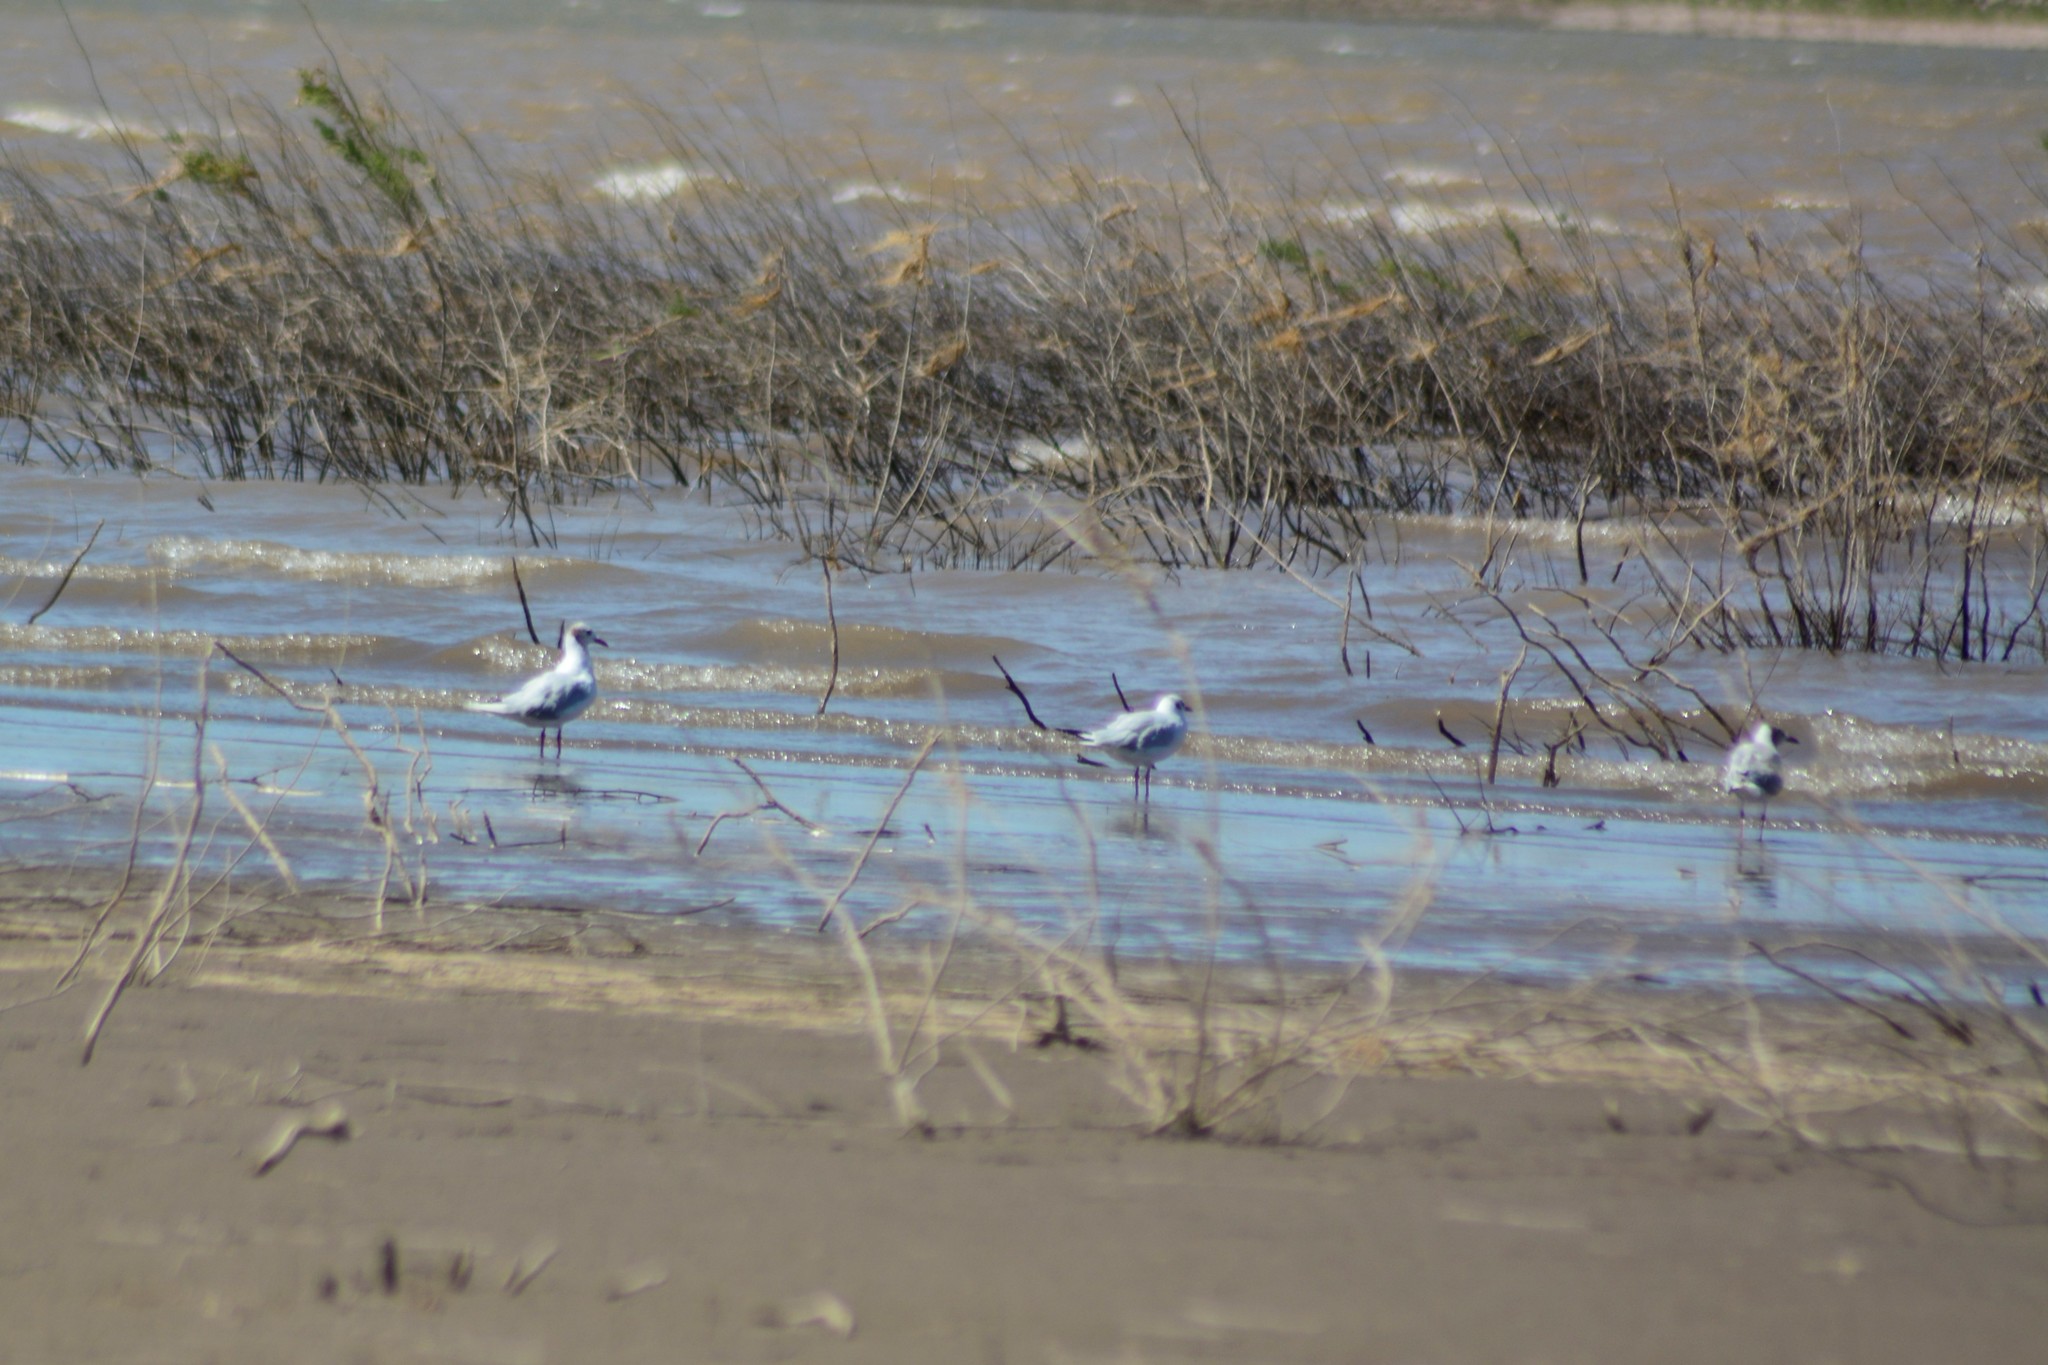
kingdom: Animalia
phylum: Chordata
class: Aves
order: Charadriiformes
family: Laridae
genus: Chroicocephalus
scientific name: Chroicocephalus maculipennis
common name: Brown-hooded gull
